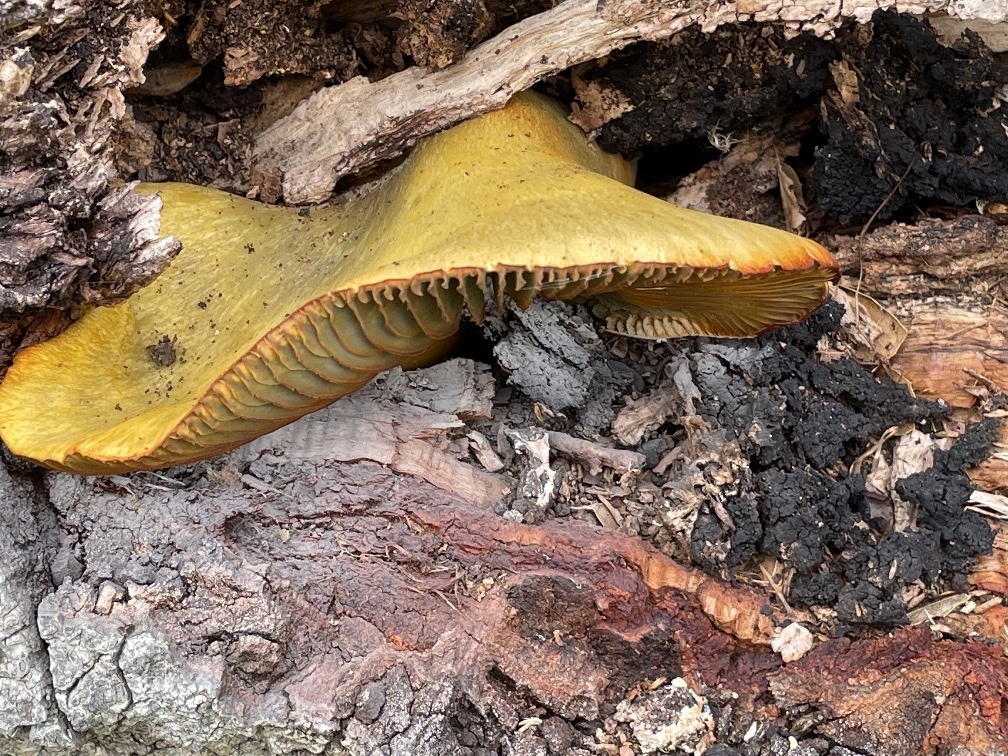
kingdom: Fungi
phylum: Basidiomycota
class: Agaricomycetes
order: Agaricales
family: Omphalotaceae
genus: Omphalotus
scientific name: Omphalotus olivascens
